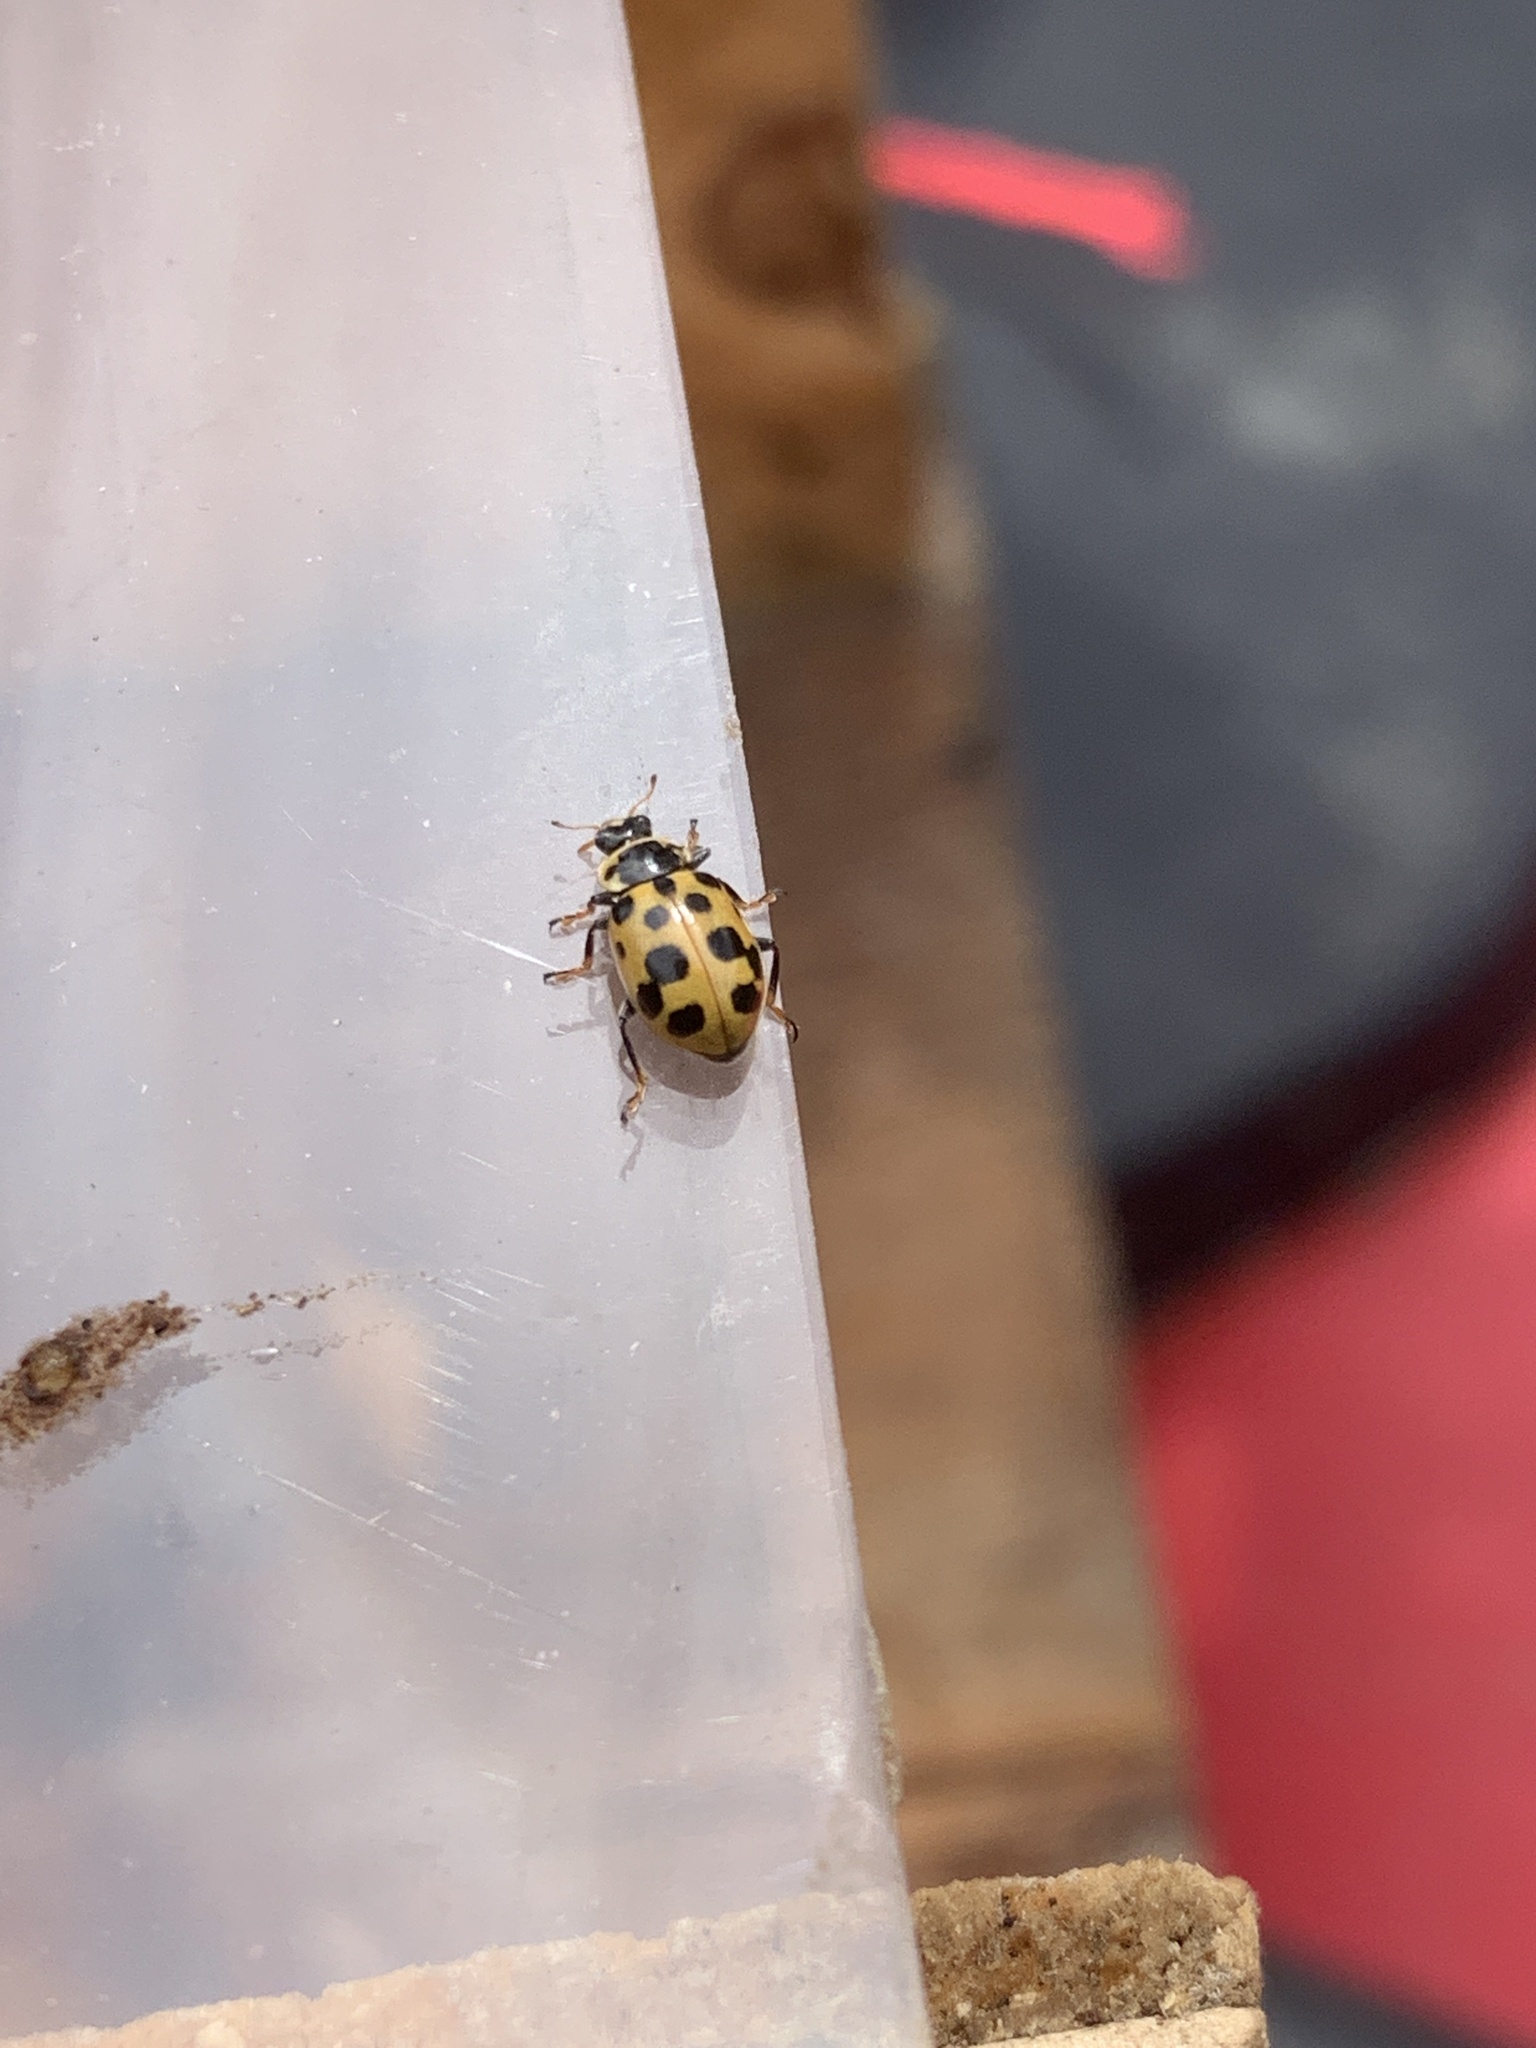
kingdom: Animalia
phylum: Arthropoda
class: Insecta
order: Coleoptera
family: Coccinellidae
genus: Hippodamia
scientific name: Hippodamia tredecimpunctata
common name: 13-spot ladybird
